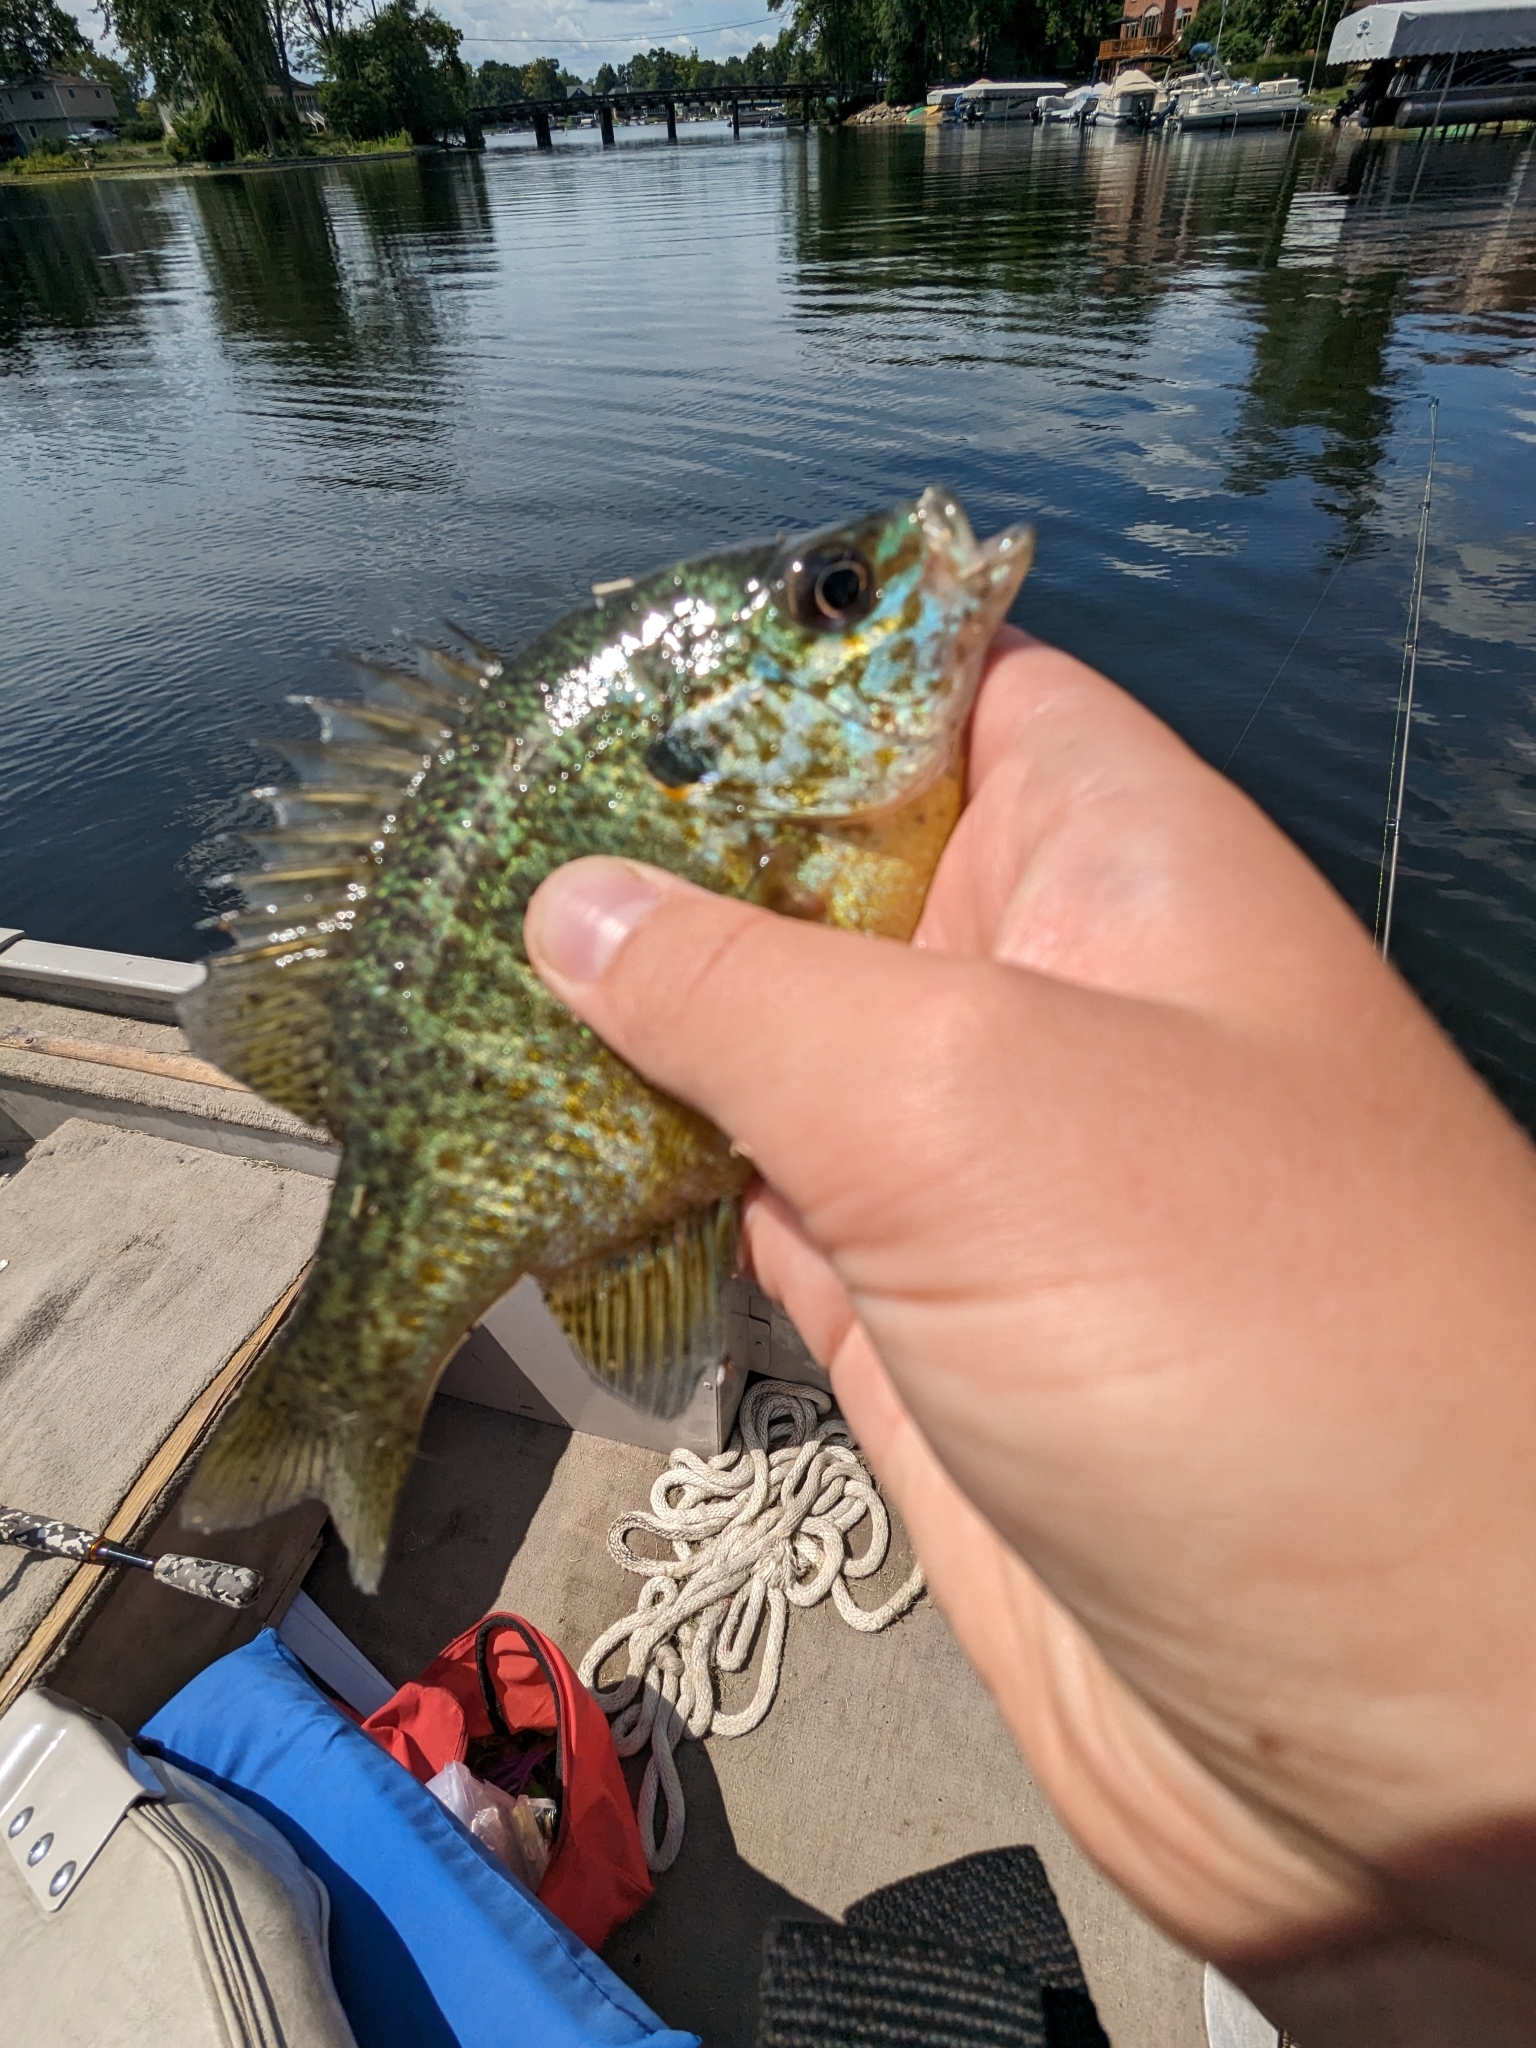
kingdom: Animalia
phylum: Chordata
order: Perciformes
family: Centrarchidae
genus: Lepomis
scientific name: Lepomis
